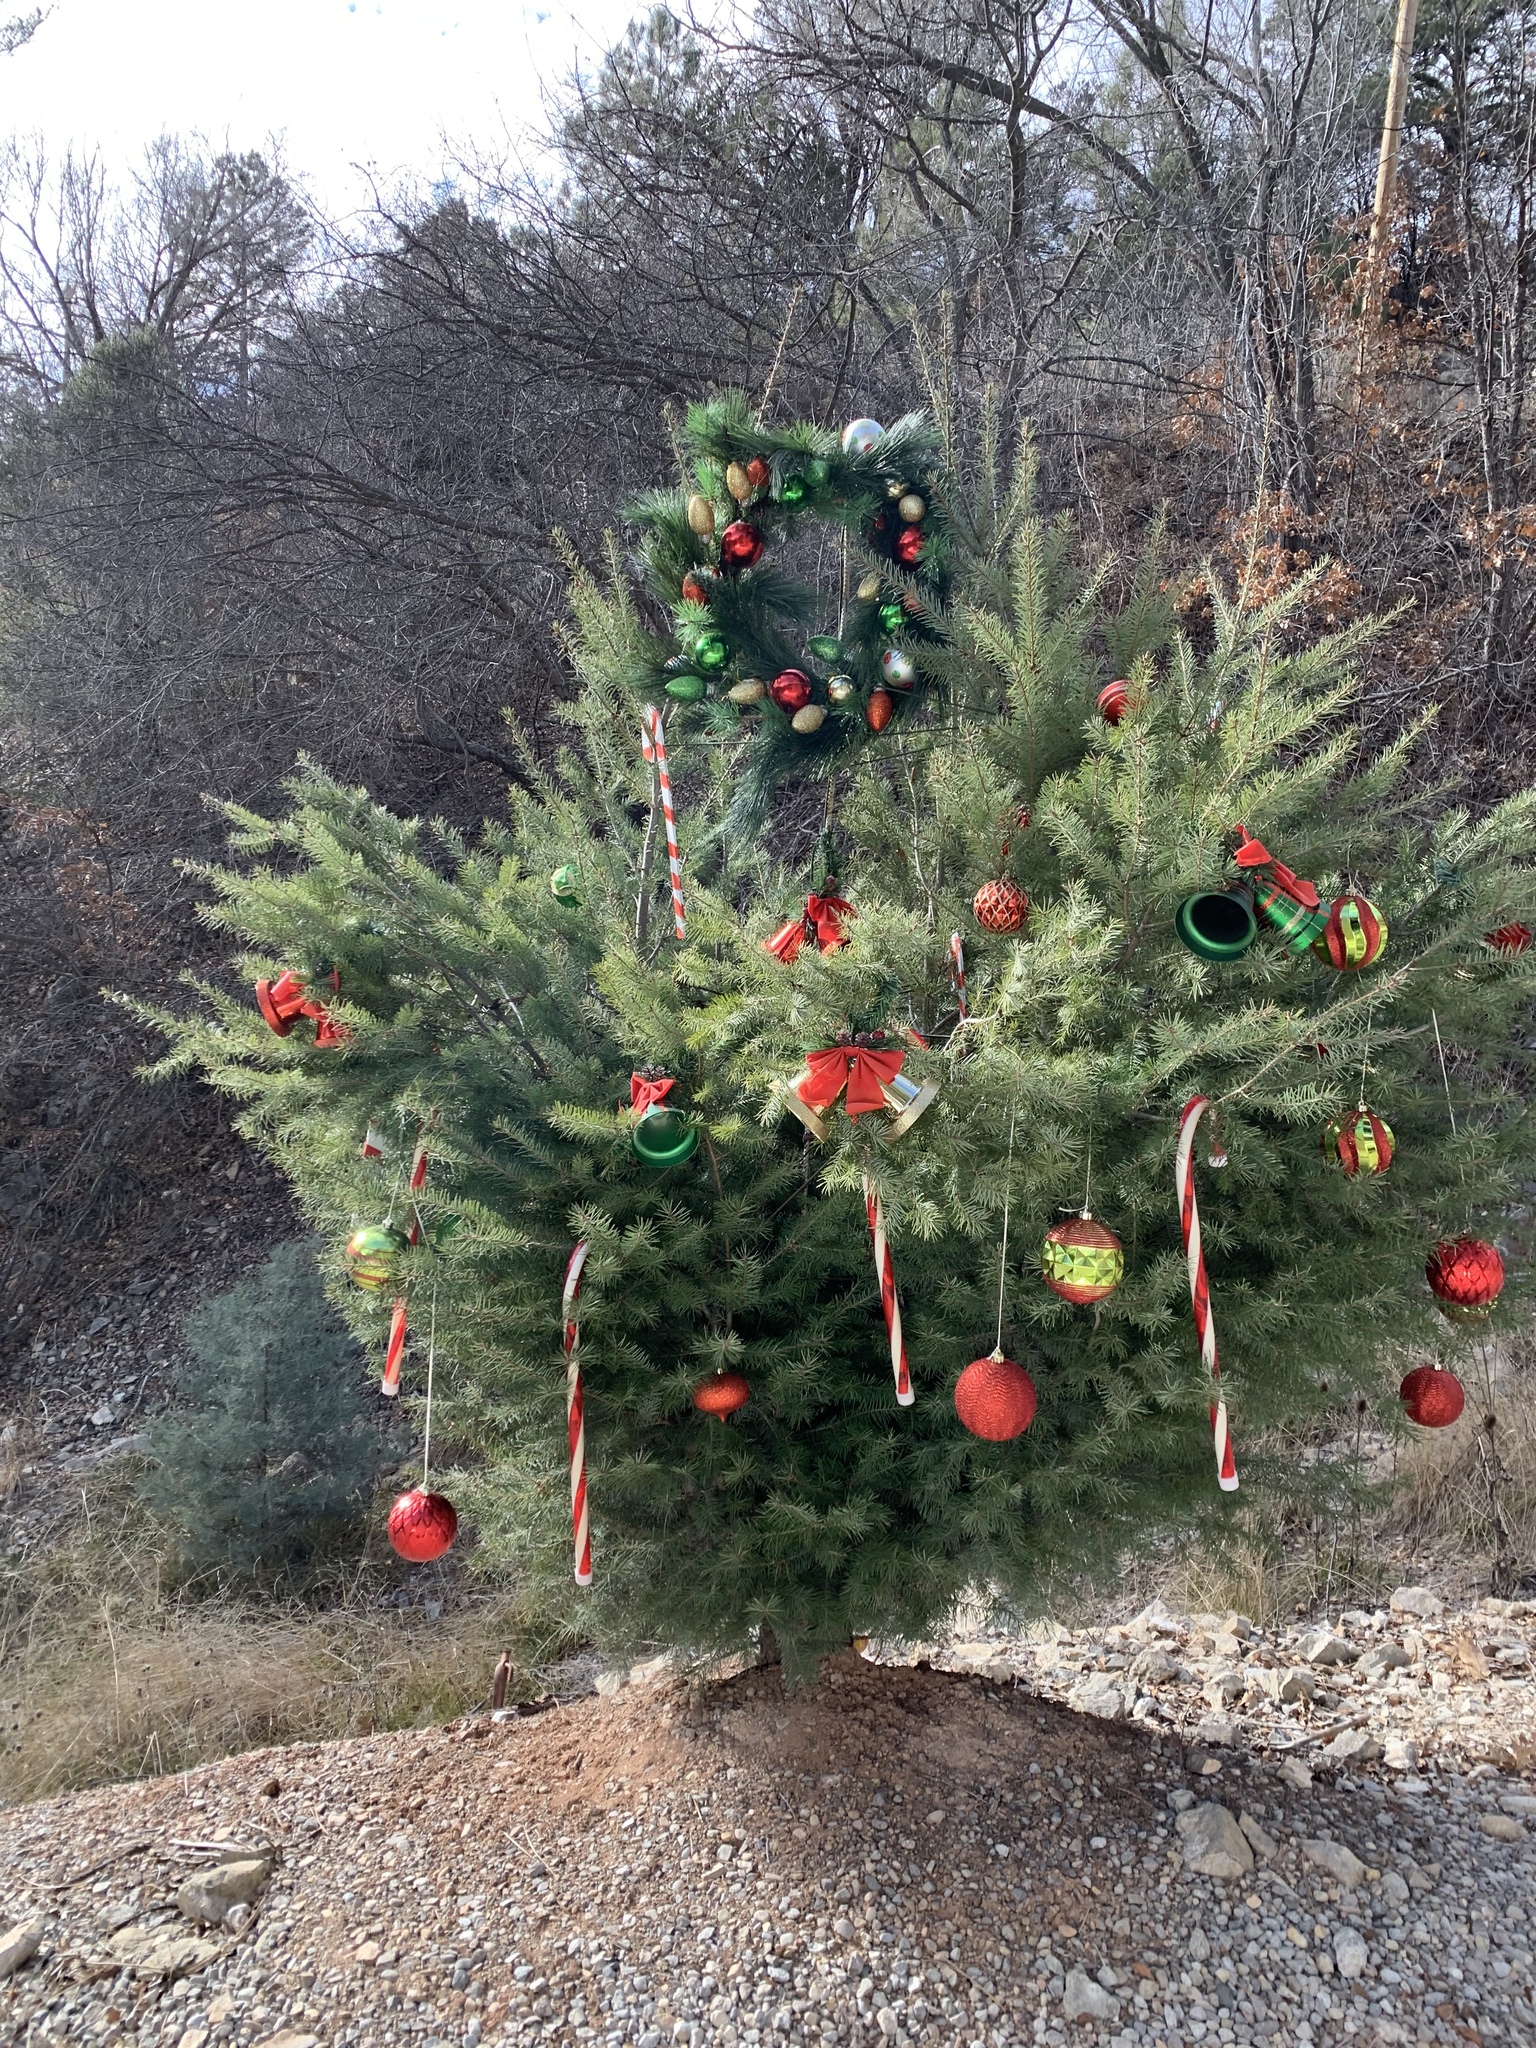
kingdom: Plantae
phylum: Tracheophyta
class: Pinopsida
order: Pinales
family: Pinaceae
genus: Pseudotsuga
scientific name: Pseudotsuga menziesii
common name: Douglas fir
